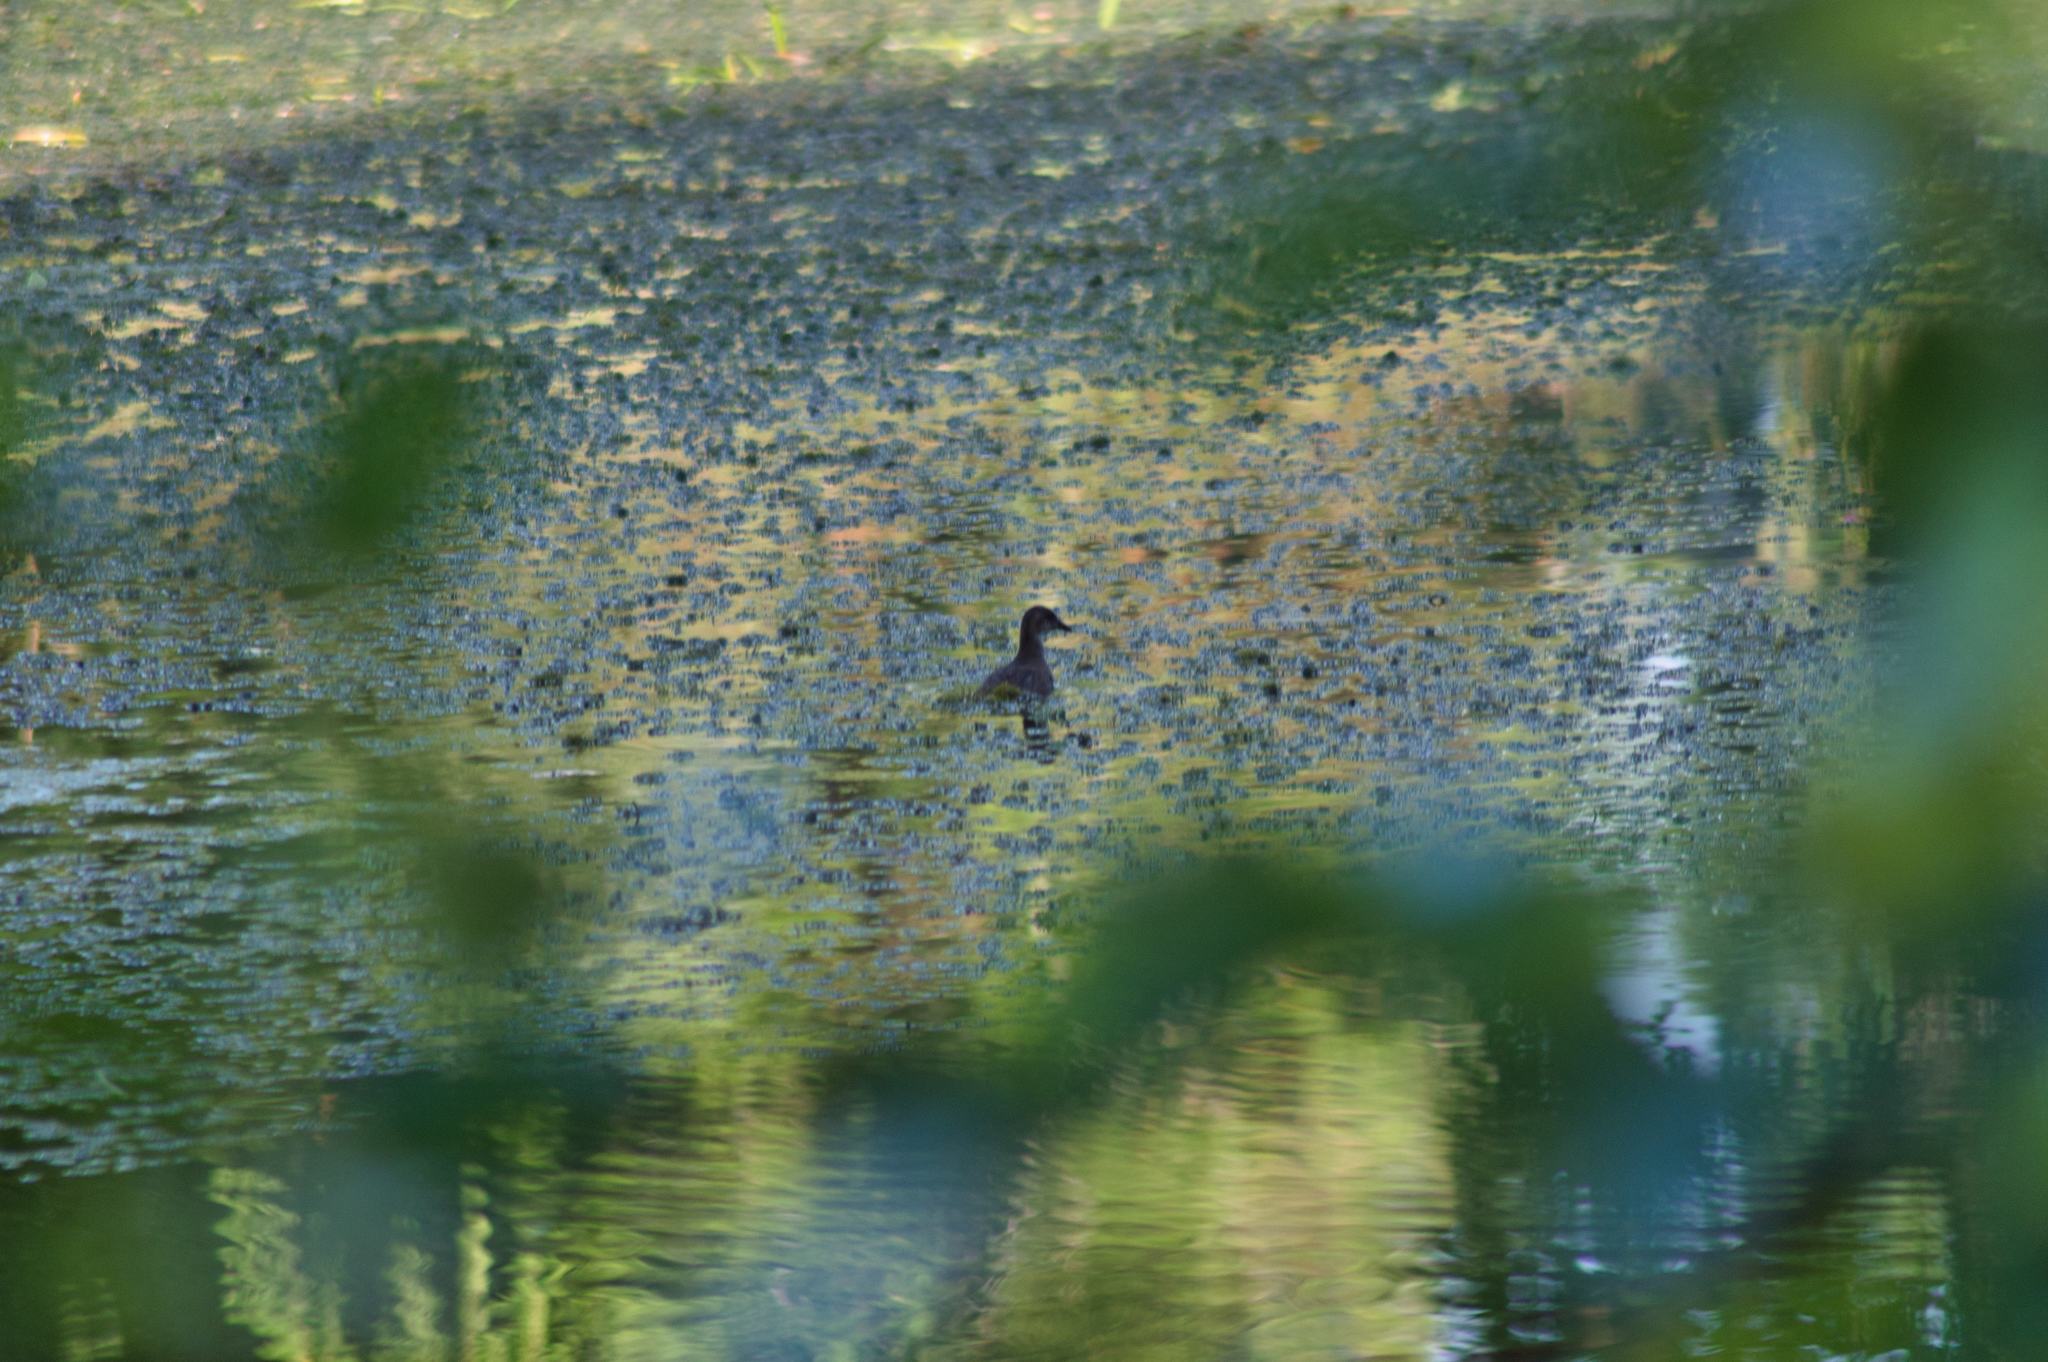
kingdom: Animalia
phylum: Chordata
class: Aves
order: Gruiformes
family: Rallidae
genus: Gallinula
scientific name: Gallinula chloropus
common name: Common moorhen
